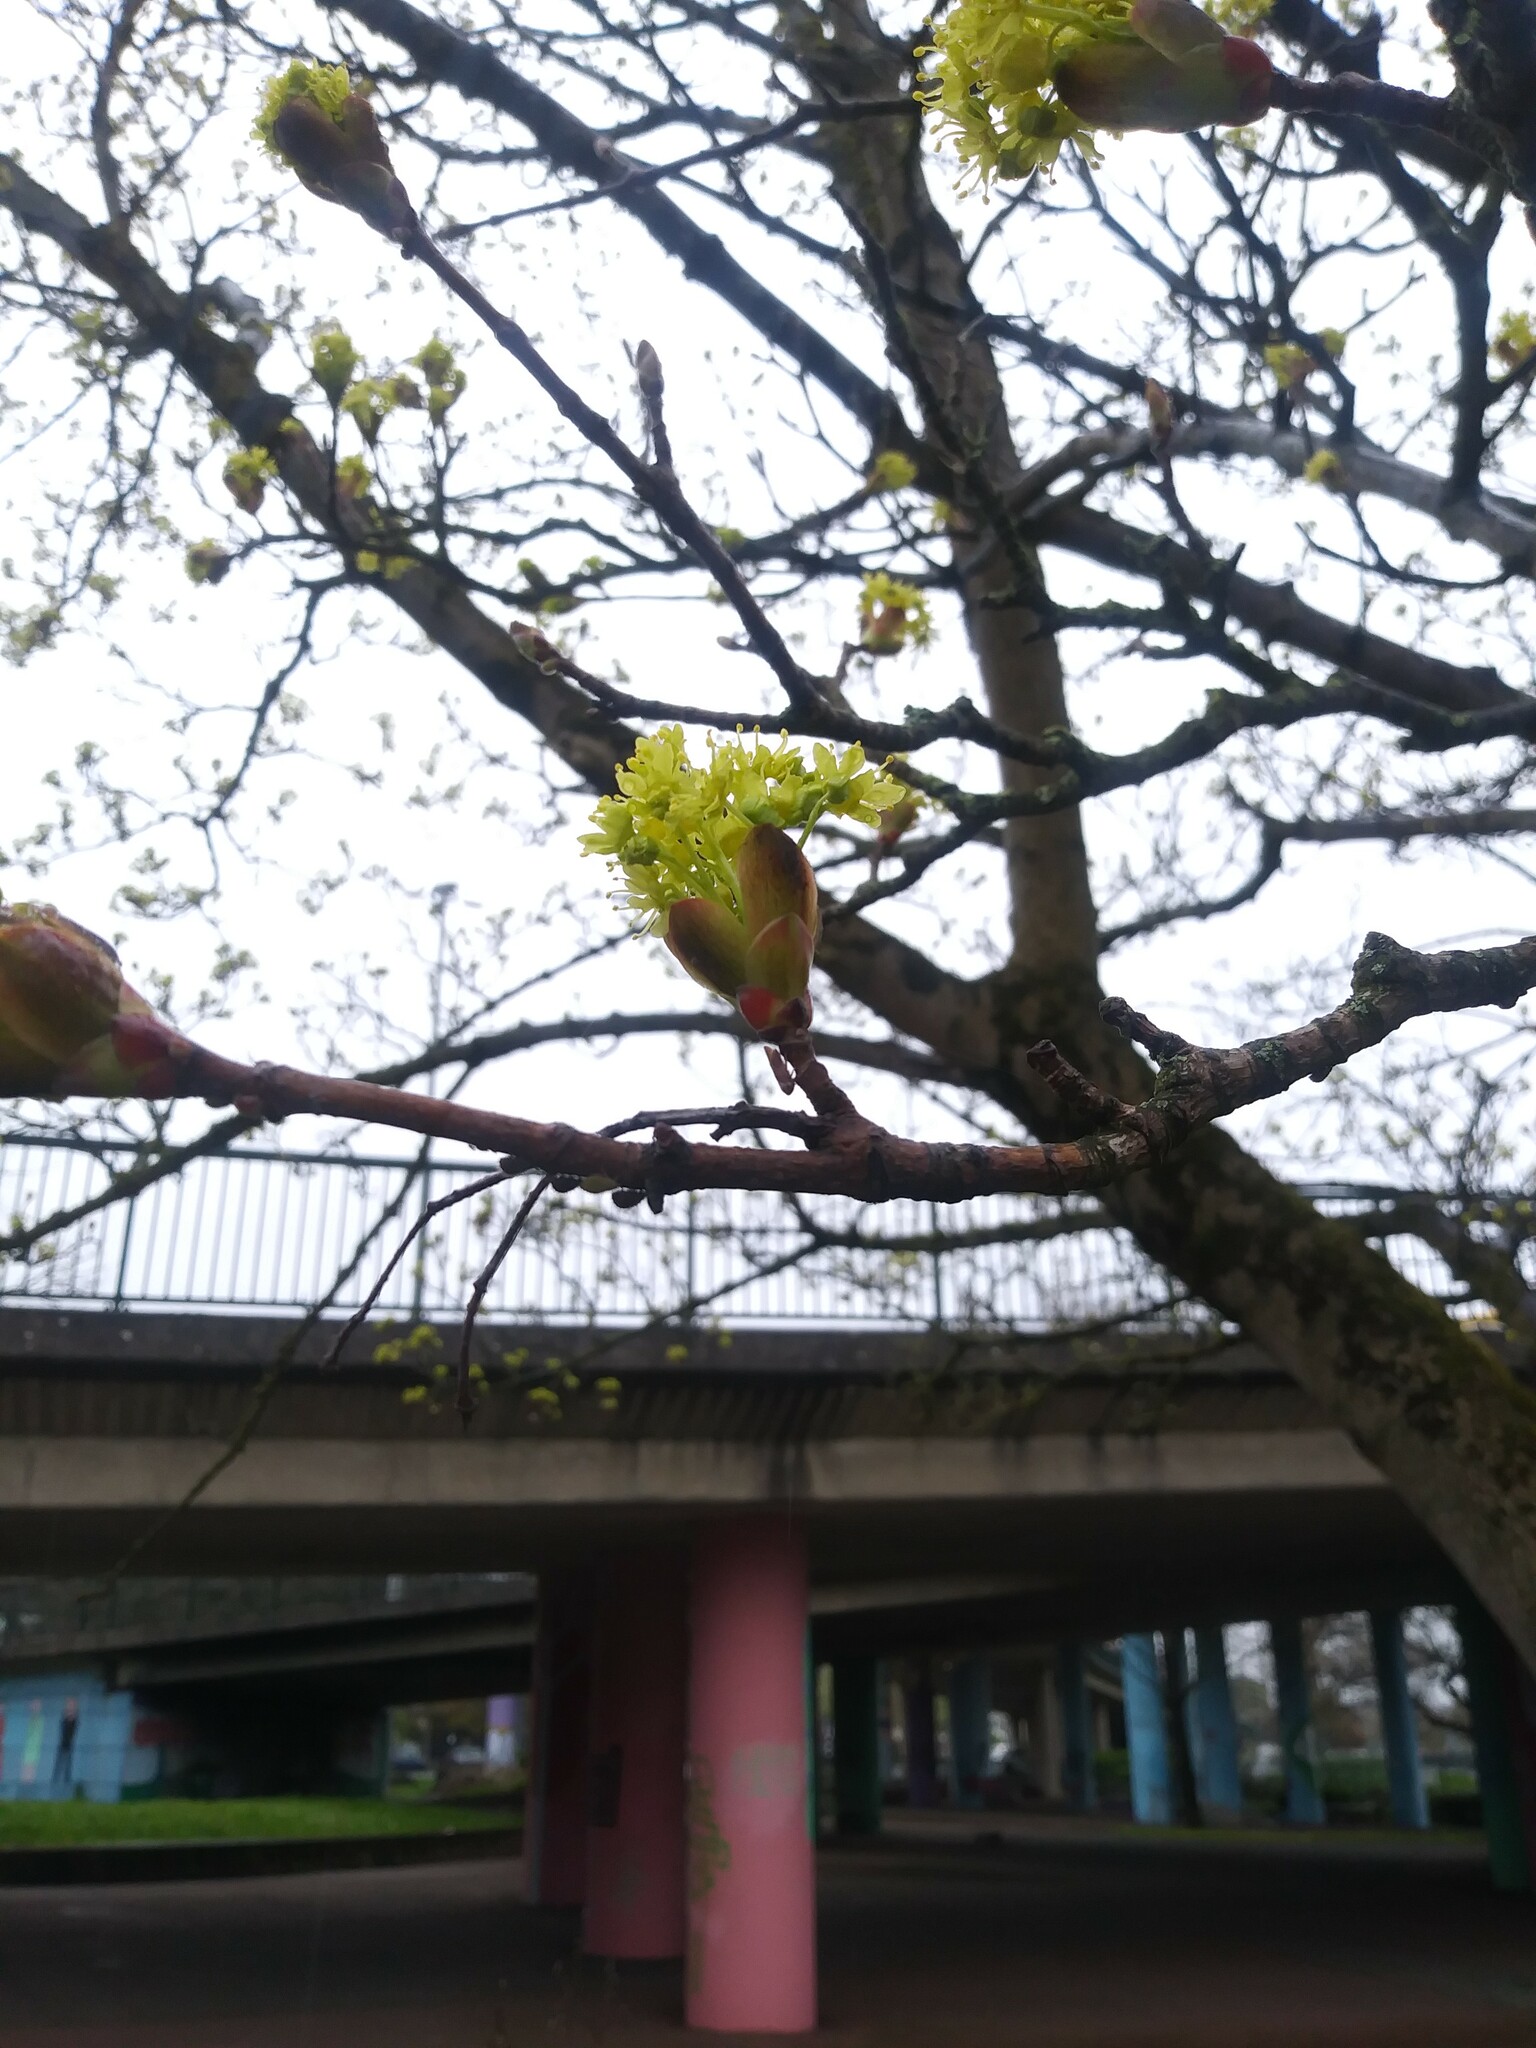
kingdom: Plantae
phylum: Tracheophyta
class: Magnoliopsida
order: Sapindales
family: Sapindaceae
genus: Acer
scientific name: Acer platanoides
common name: Norway maple
